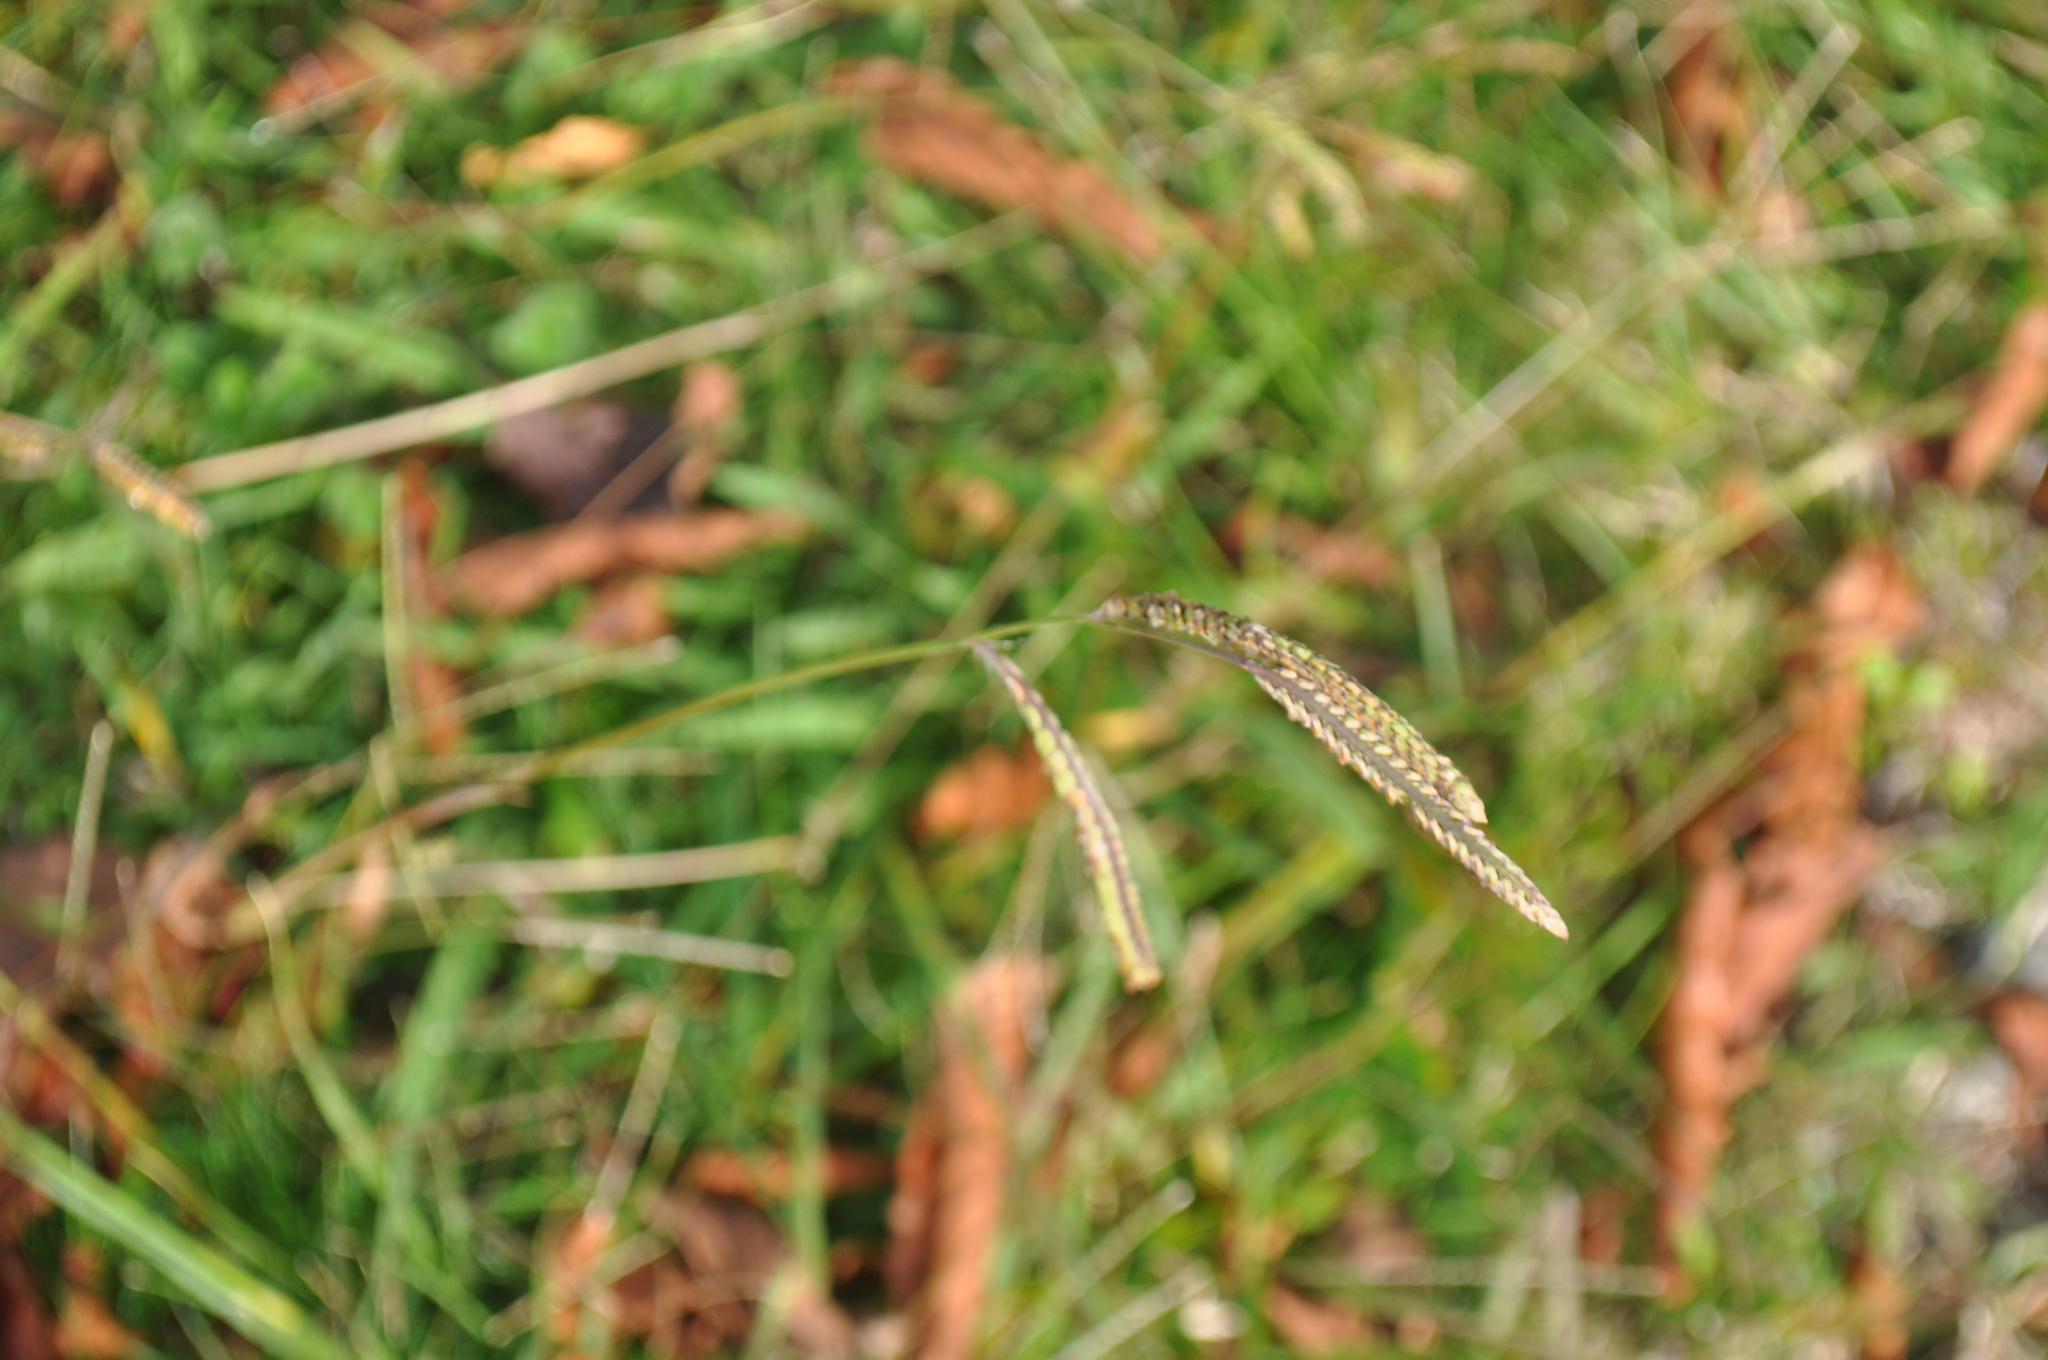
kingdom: Plantae
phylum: Tracheophyta
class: Liliopsida
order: Poales
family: Poaceae
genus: Paspalum
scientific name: Paspalum dilatatum
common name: Dallisgrass
